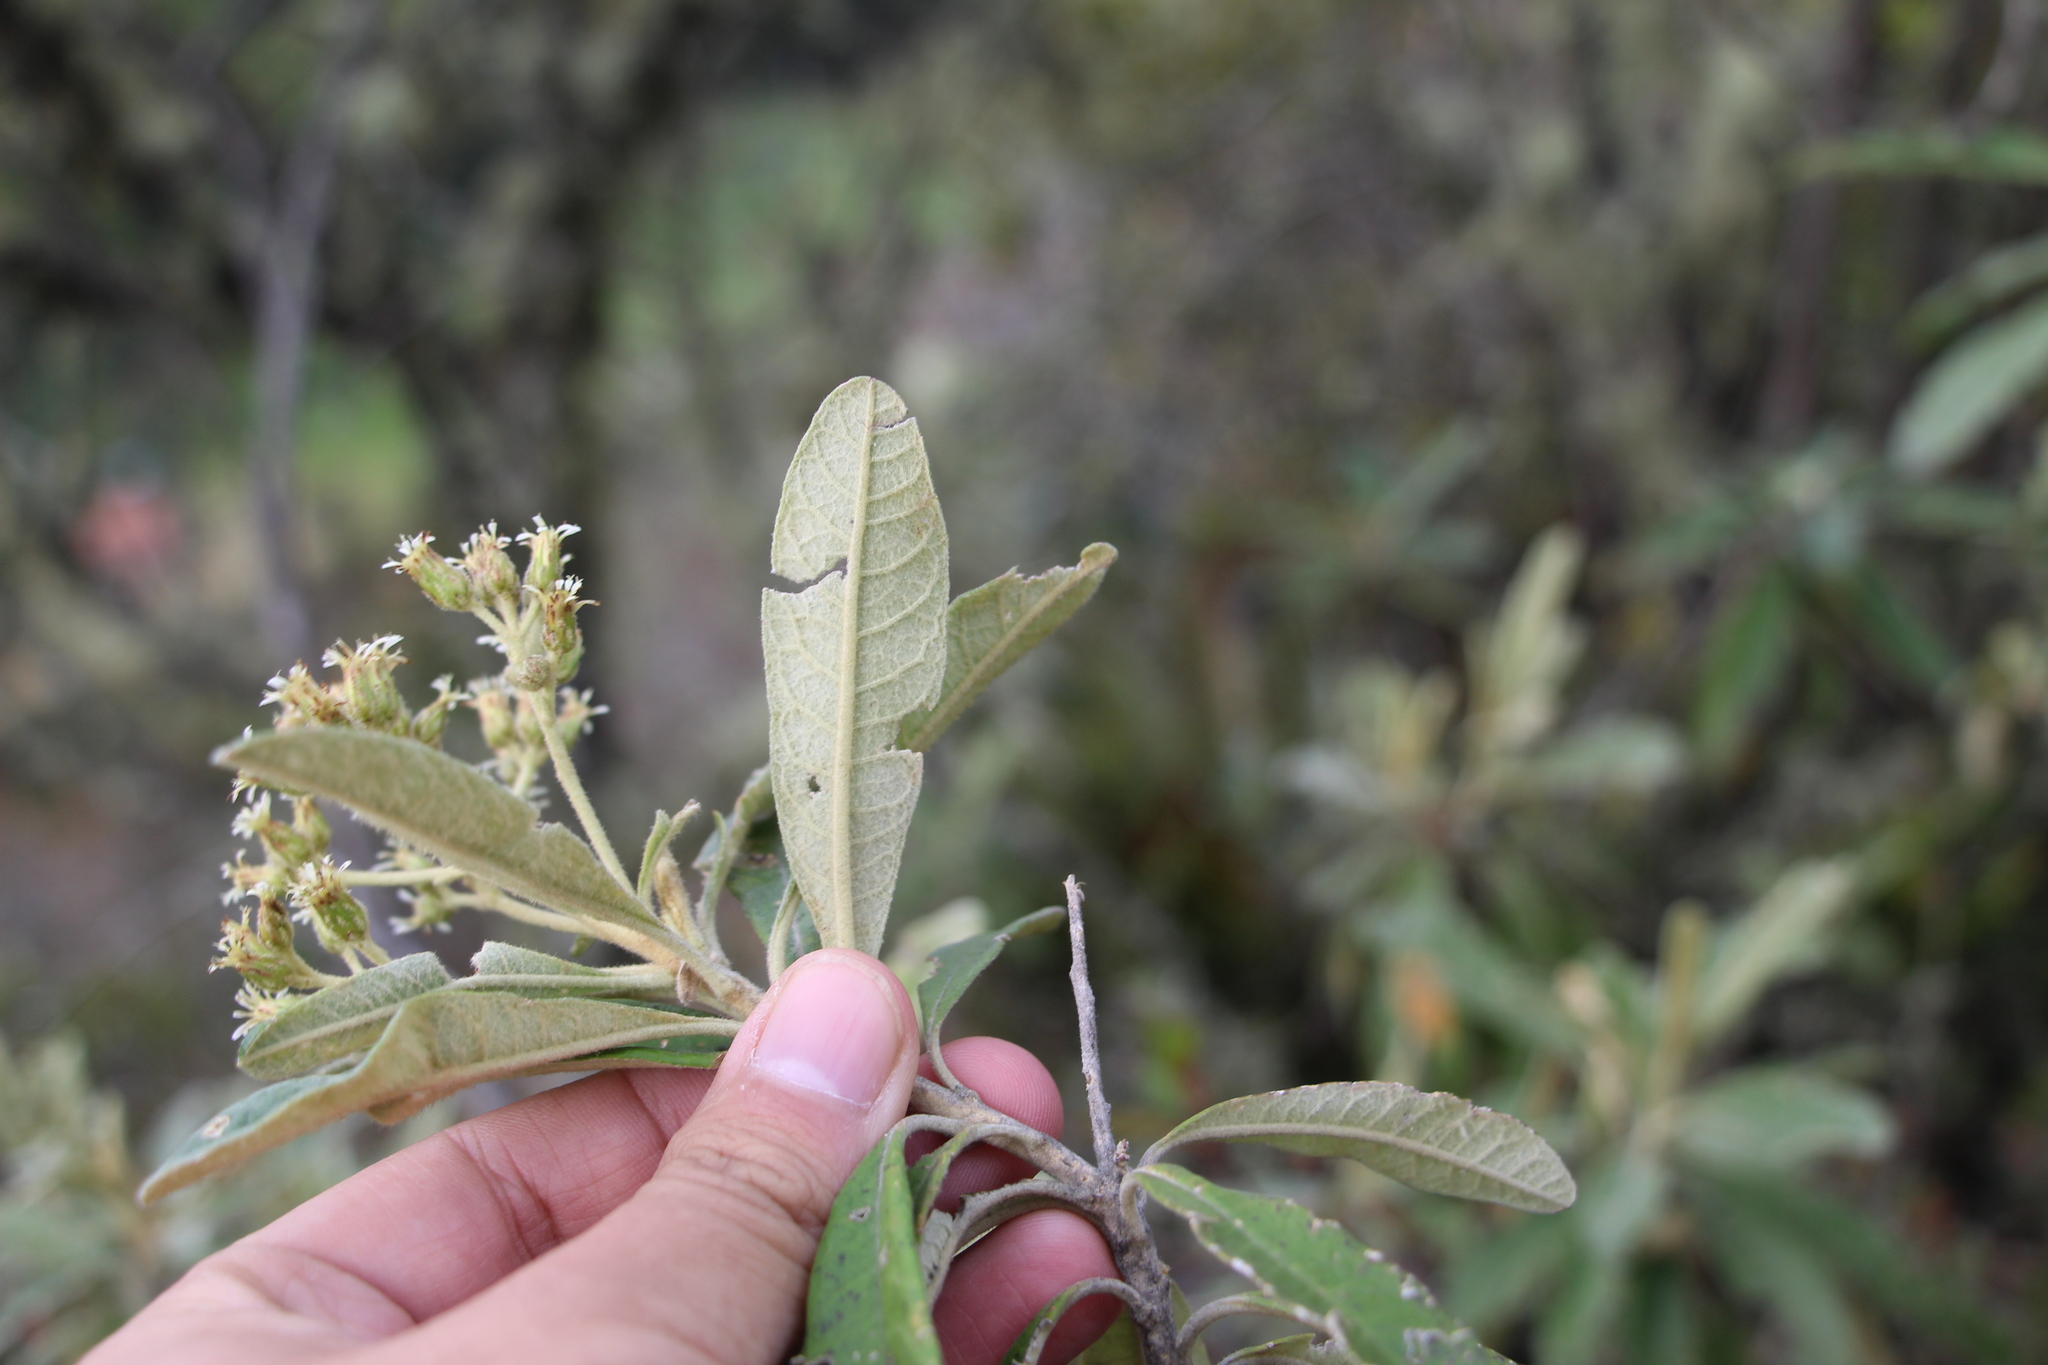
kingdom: Plantae
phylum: Tracheophyta
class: Magnoliopsida
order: Asterales
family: Asteraceae
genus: Linochilus
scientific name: Linochilus tenuifolius
